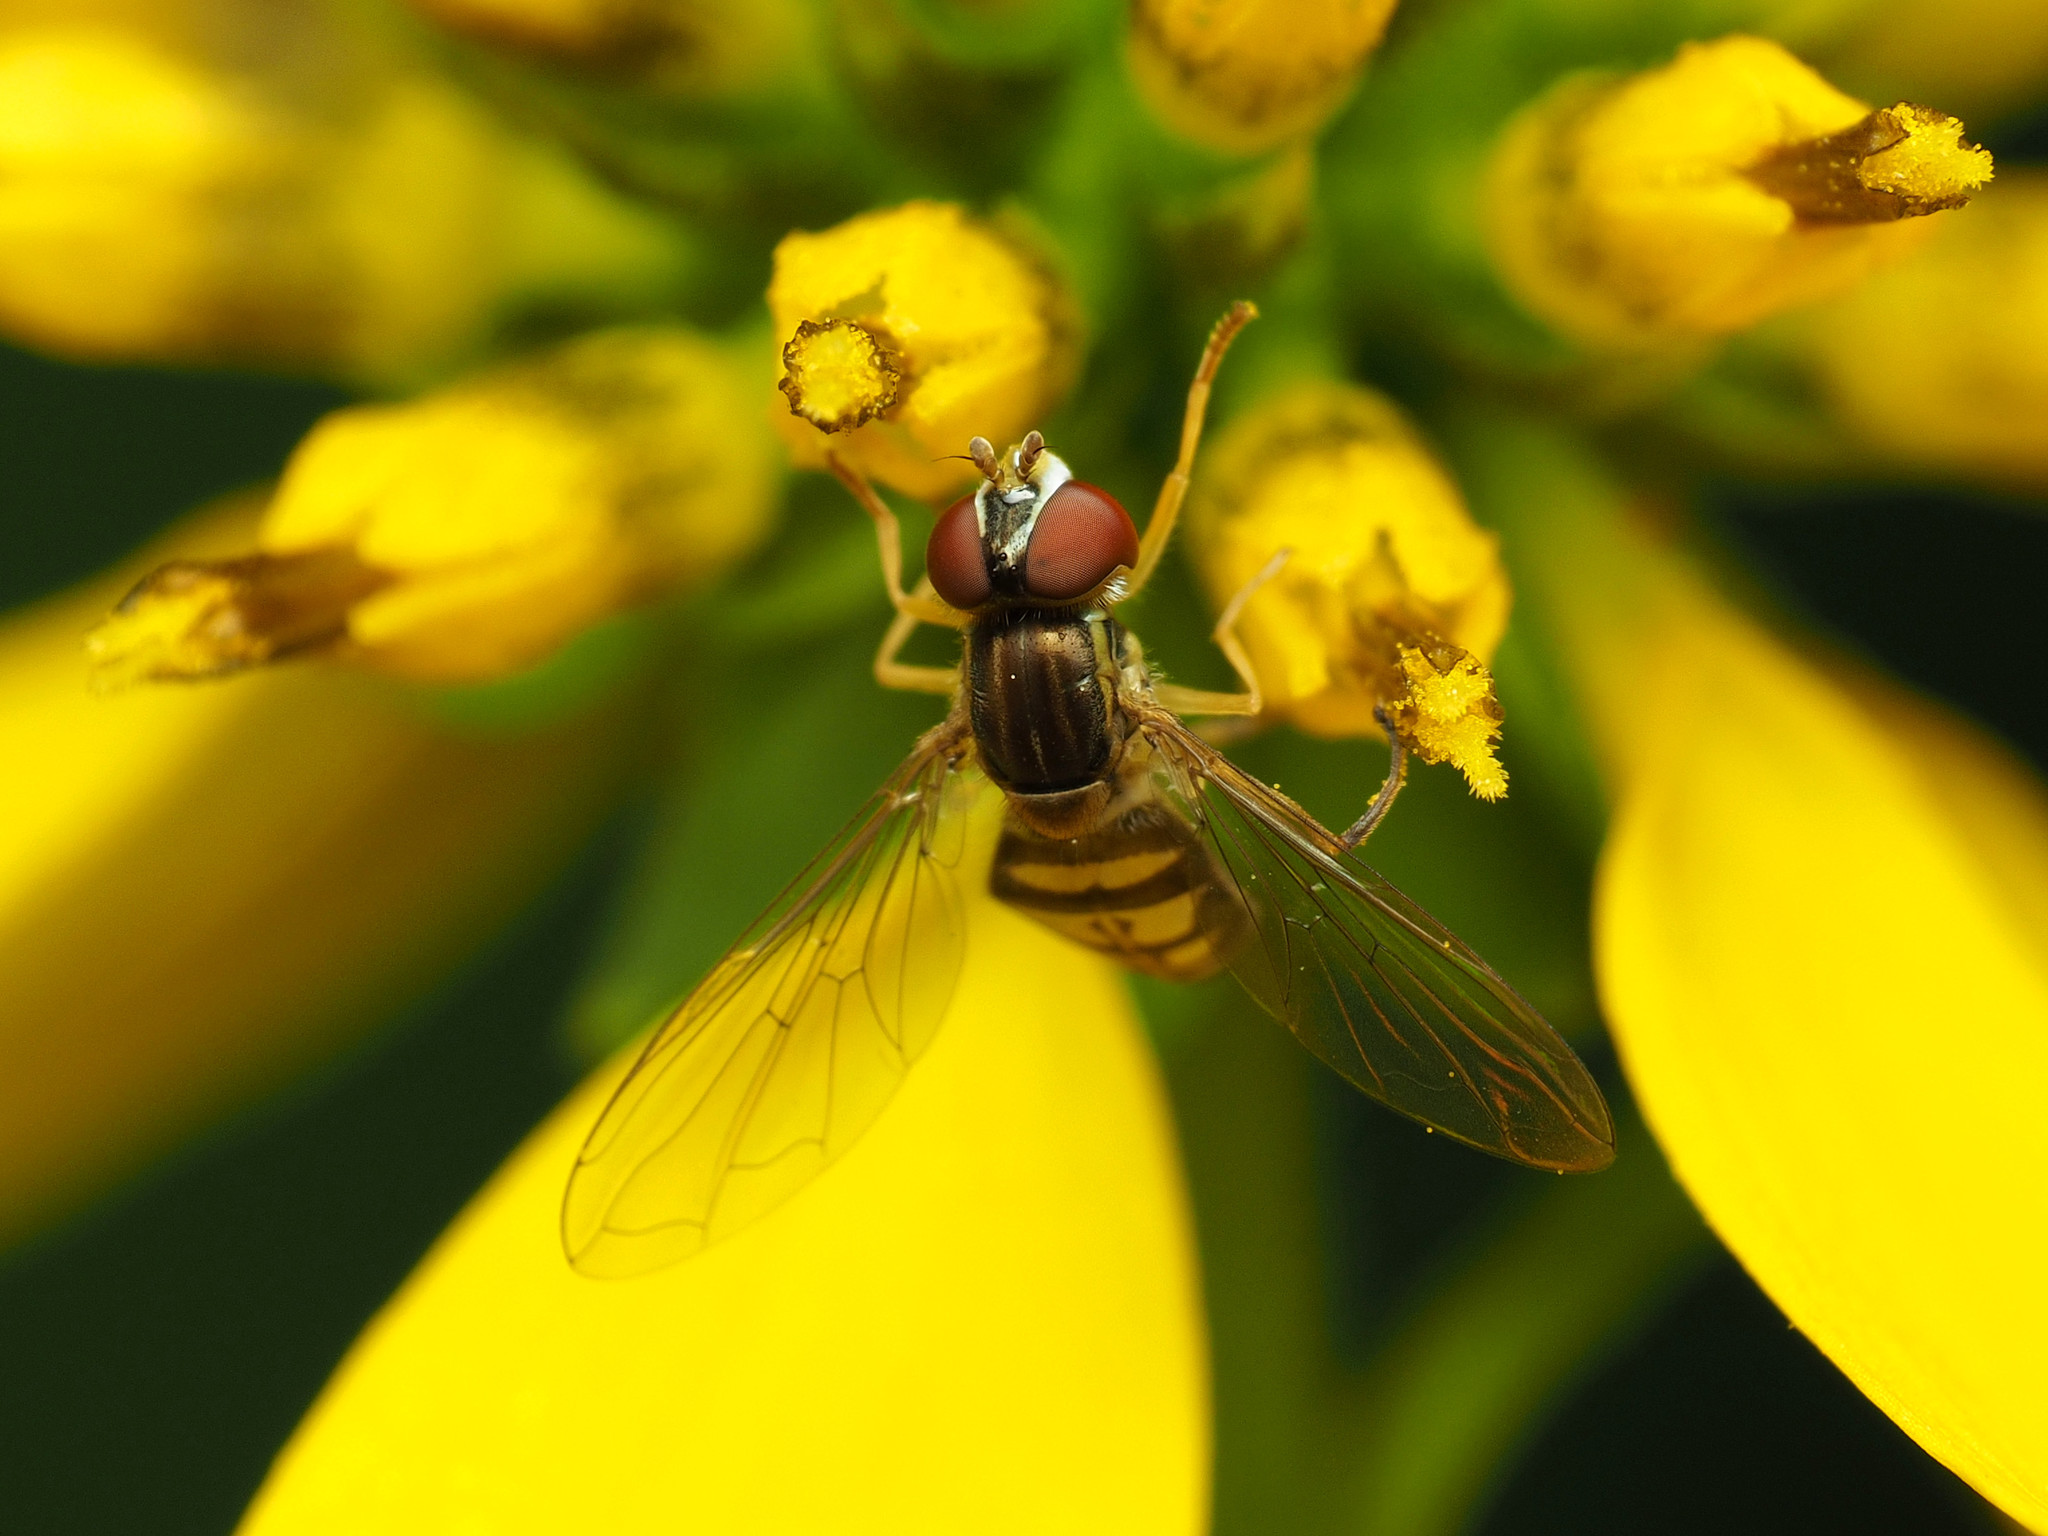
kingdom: Animalia
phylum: Arthropoda
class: Insecta
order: Diptera
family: Syrphidae
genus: Toxomerus
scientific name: Toxomerus marginatus
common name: Syrphid fly
